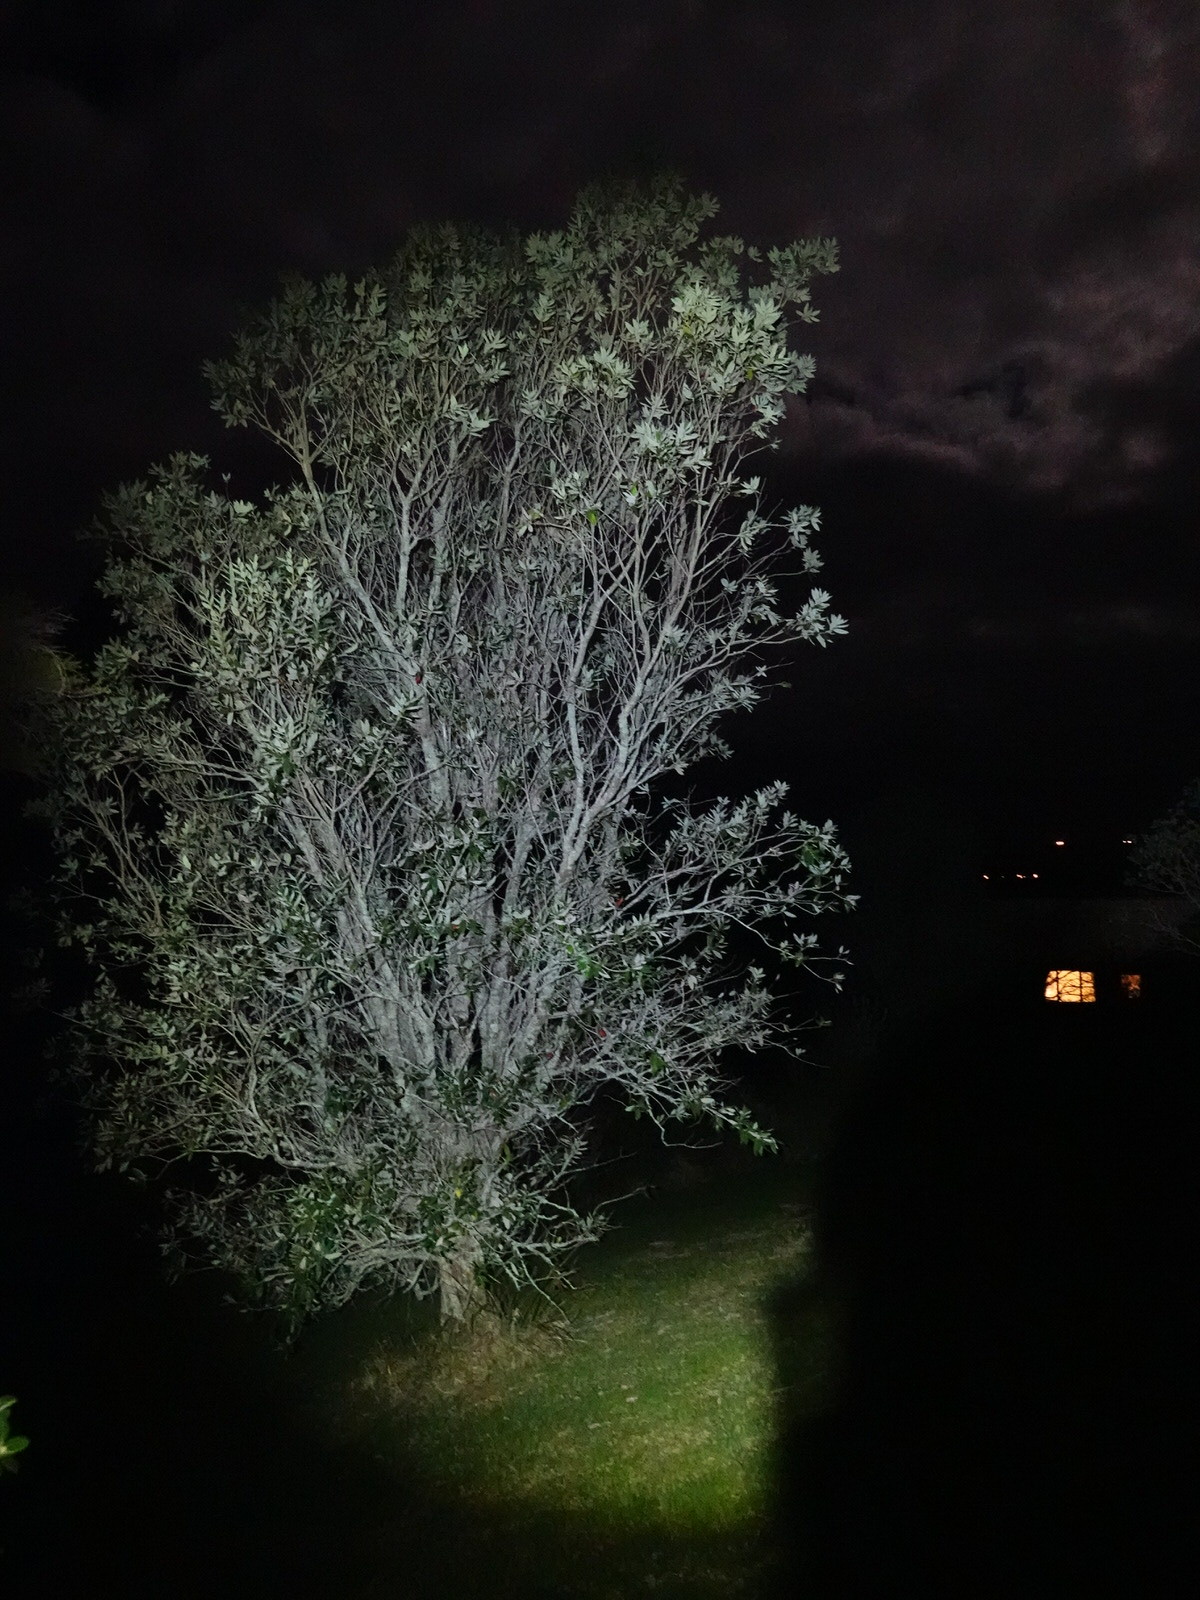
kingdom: Animalia
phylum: Chordata
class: Mammalia
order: Diprotodontia
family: Phalangeridae
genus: Trichosurus
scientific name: Trichosurus vulpecula
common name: Common brushtail
